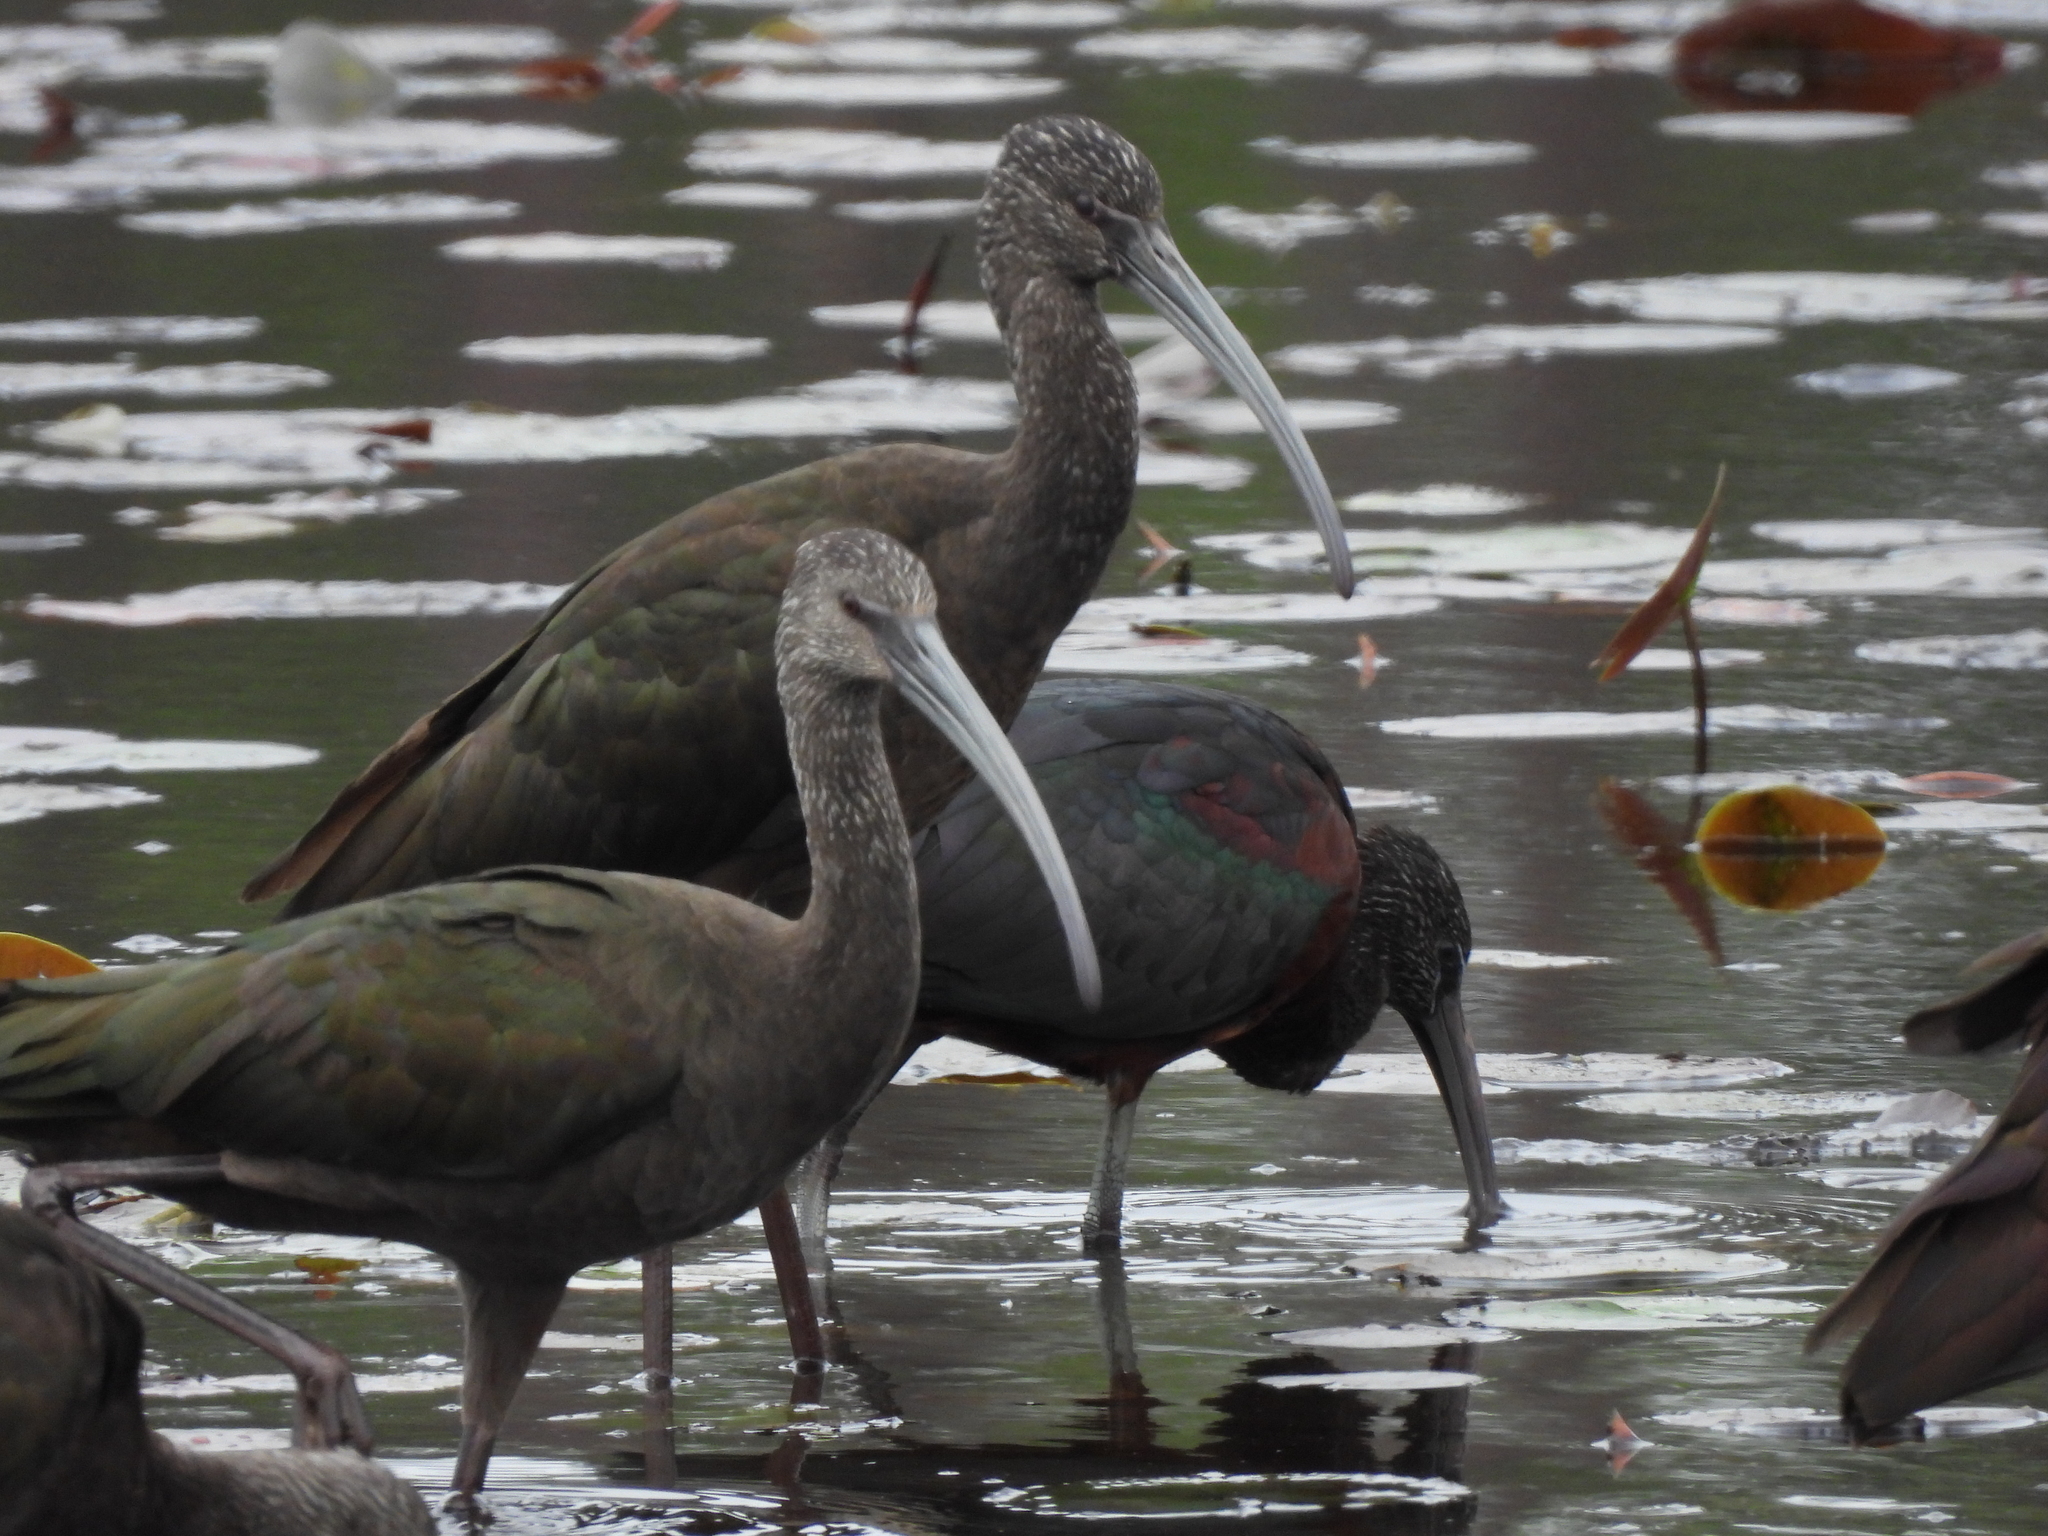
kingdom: Animalia
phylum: Chordata
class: Aves
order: Pelecaniformes
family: Threskiornithidae
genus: Plegadis
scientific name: Plegadis falcinellus
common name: Glossy ibis
